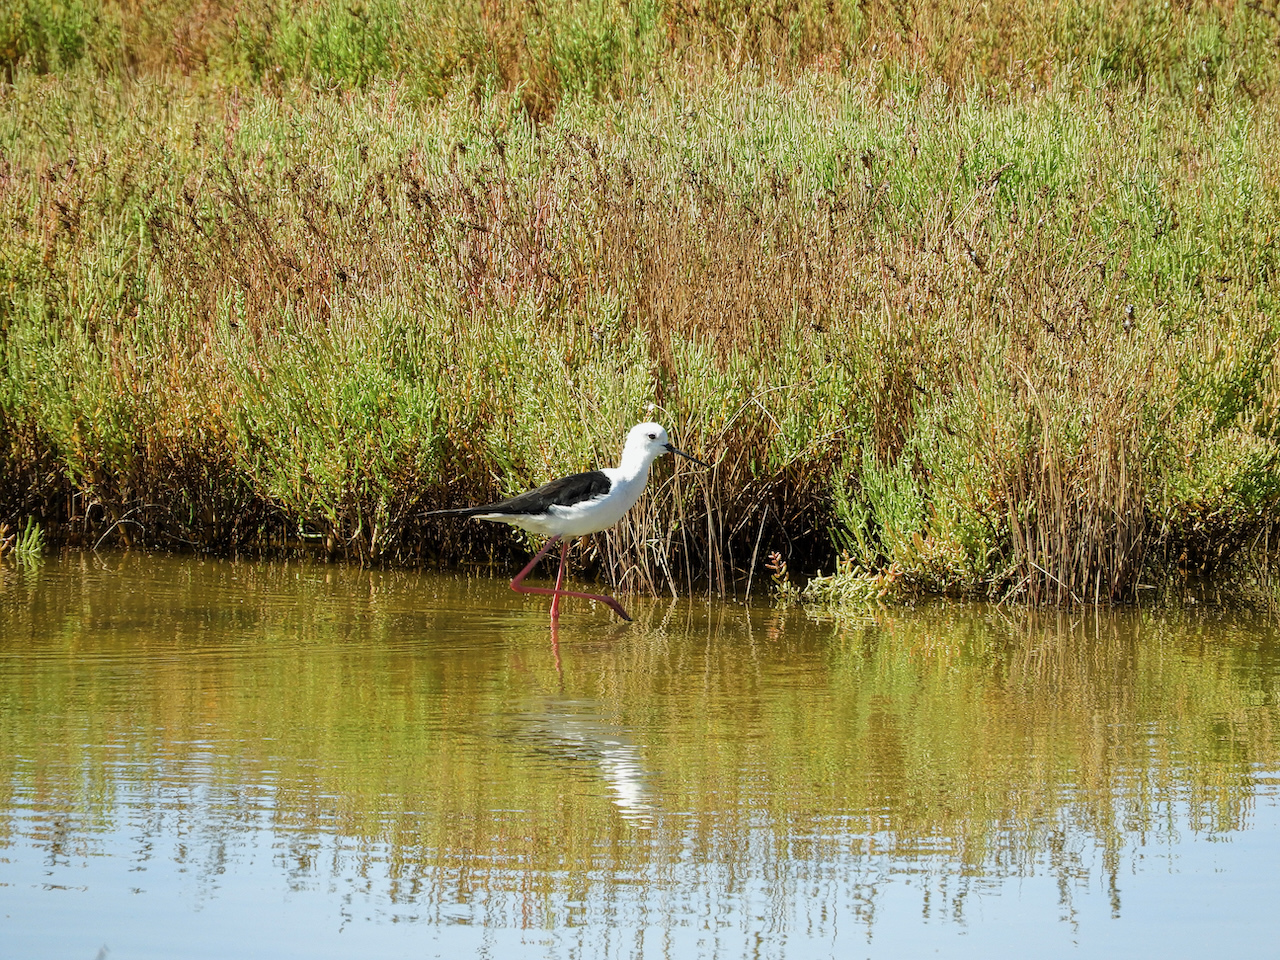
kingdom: Animalia
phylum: Chordata
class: Aves
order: Charadriiformes
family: Recurvirostridae
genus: Himantopus
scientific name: Himantopus himantopus
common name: Black-winged stilt
